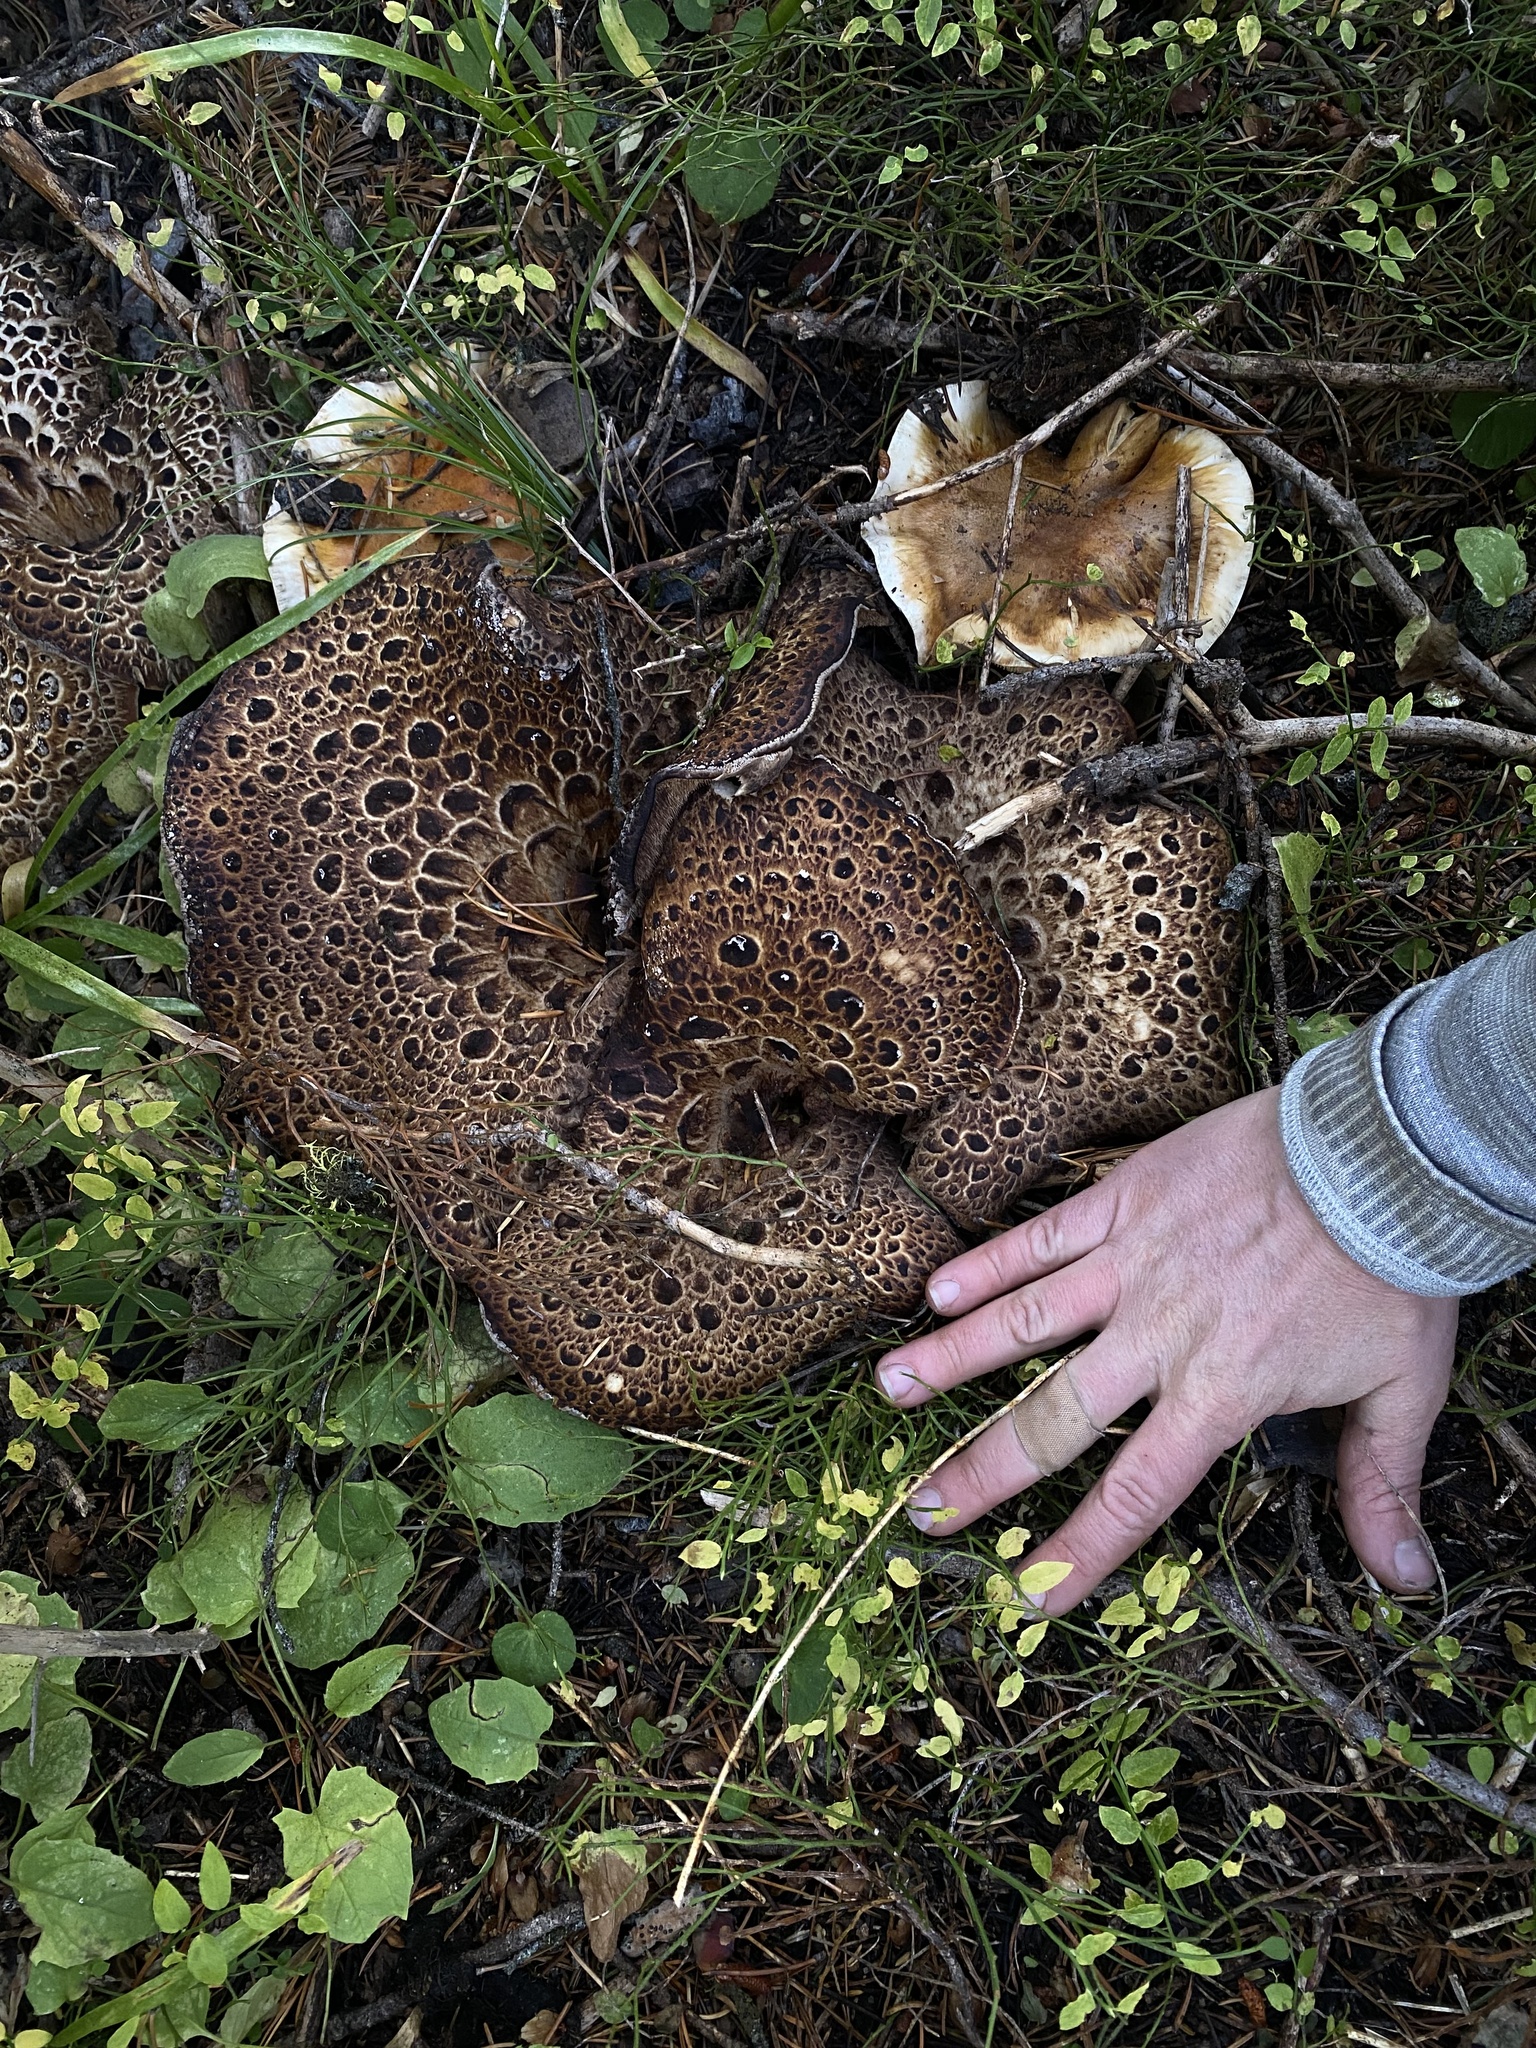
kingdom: Fungi
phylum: Basidiomycota
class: Agaricomycetes
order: Thelephorales
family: Bankeraceae
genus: Sarcodon
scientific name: Sarcodon imbricatus
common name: Shingled hedgehog
